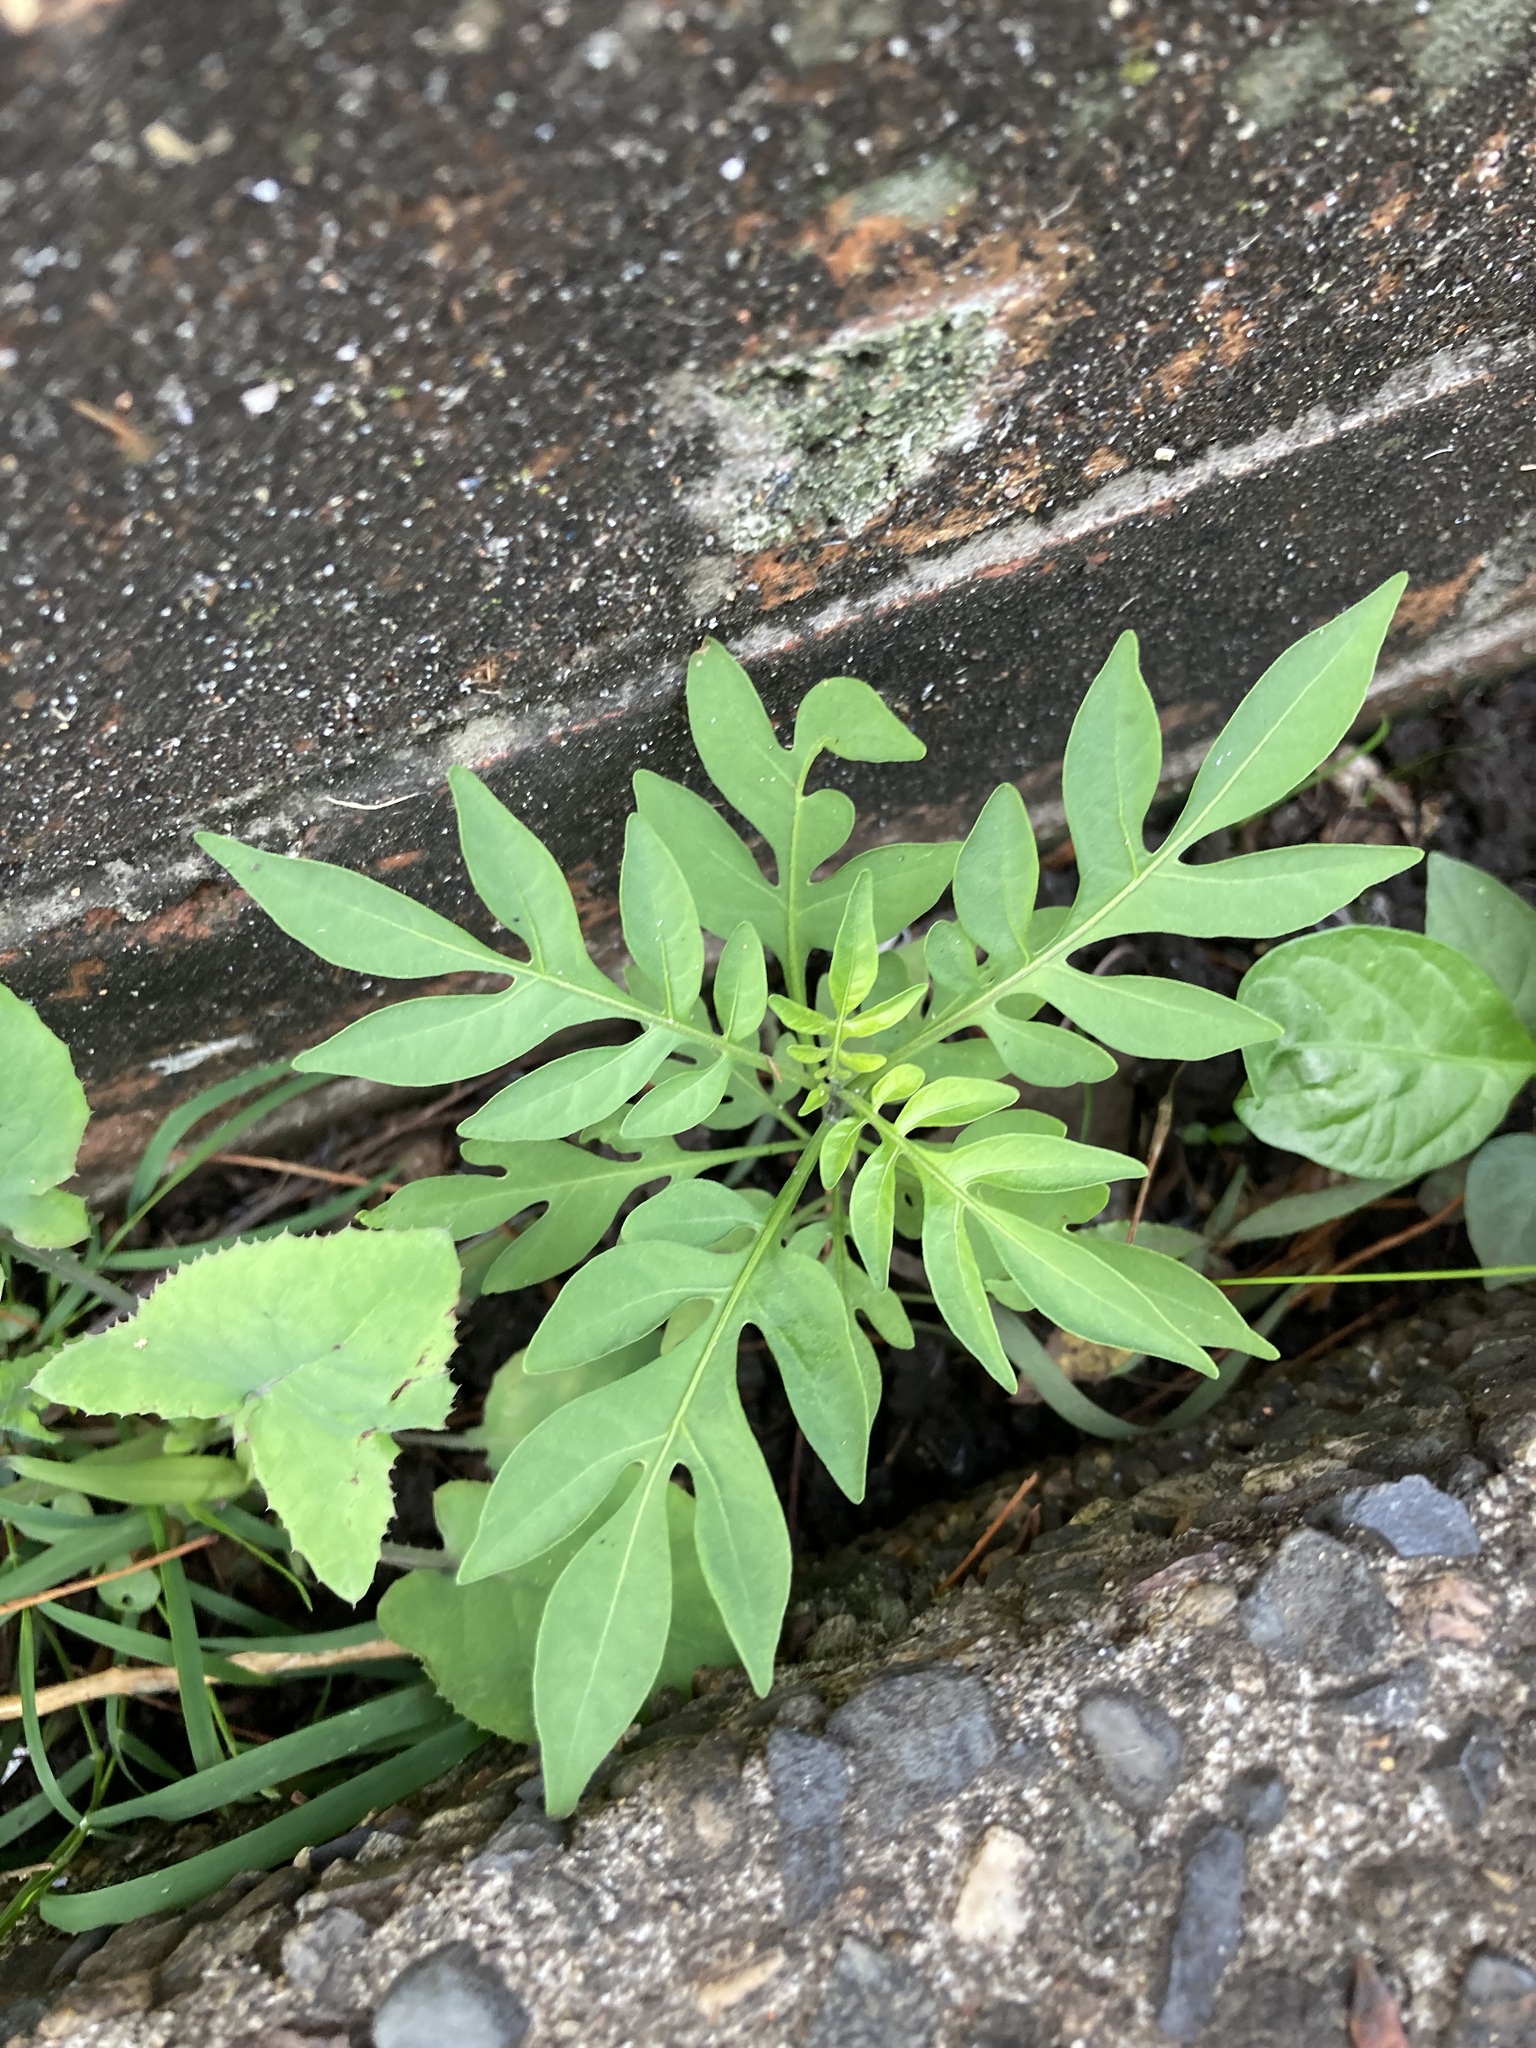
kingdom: Plantae
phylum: Tracheophyta
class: Magnoliopsida
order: Solanales
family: Solanaceae
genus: Solanum
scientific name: Solanum seaforthianum
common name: Brazilian nightshade
